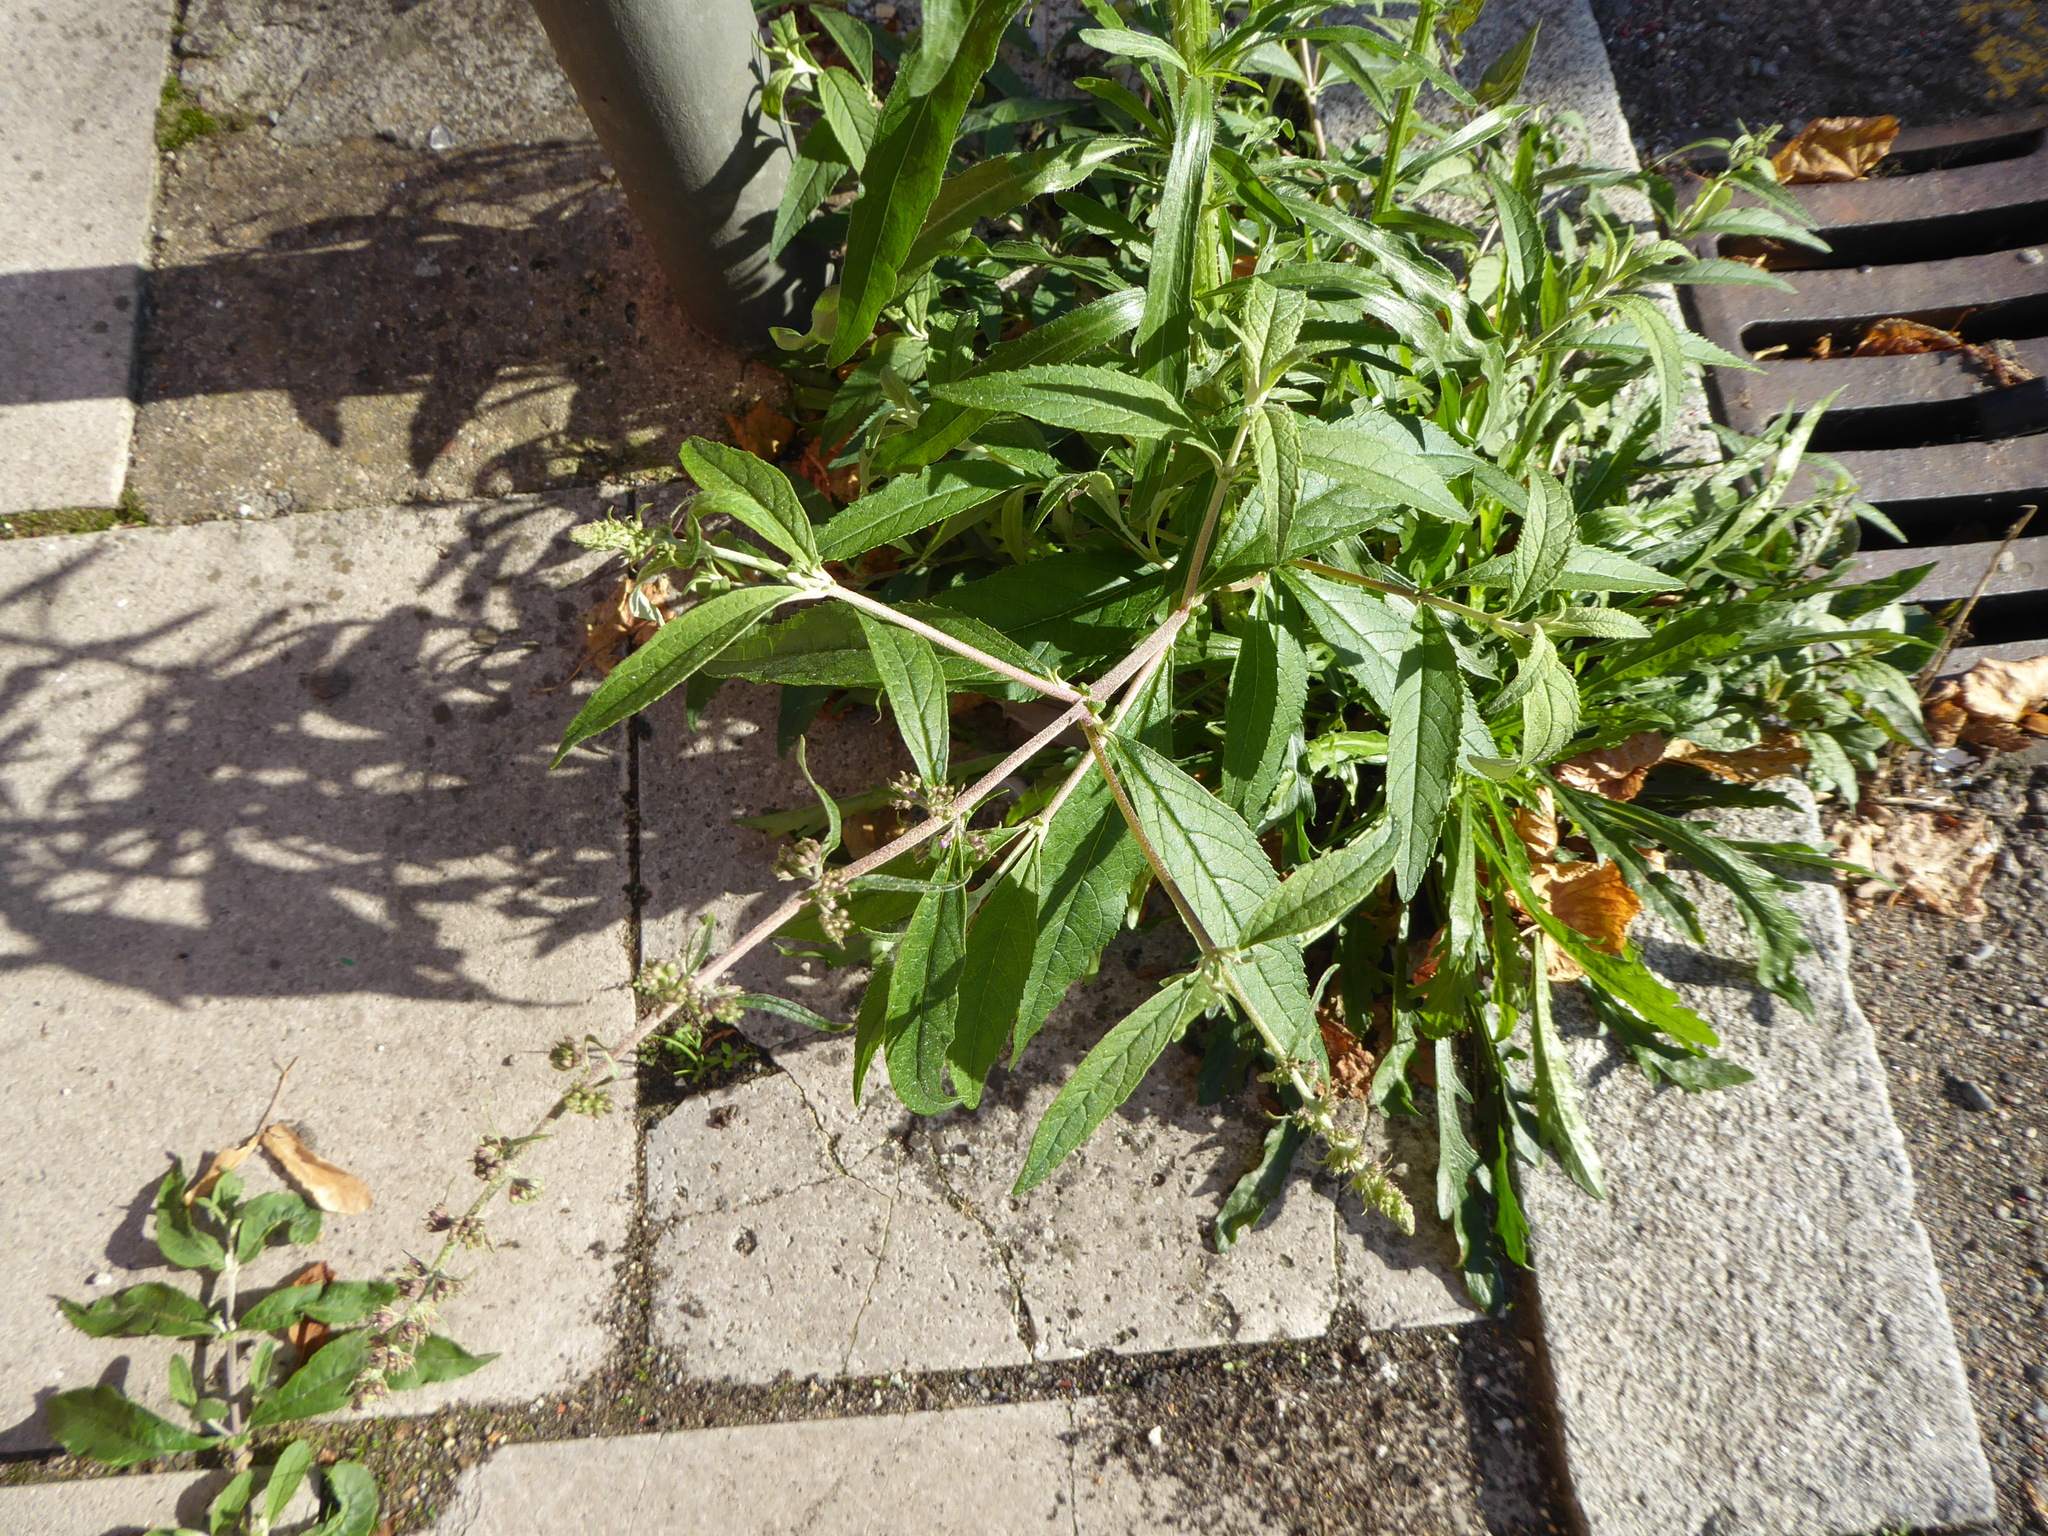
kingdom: Plantae
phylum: Tracheophyta
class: Magnoliopsida
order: Lamiales
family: Scrophulariaceae
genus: Buddleja
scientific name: Buddleja davidii
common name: Butterfly-bush
